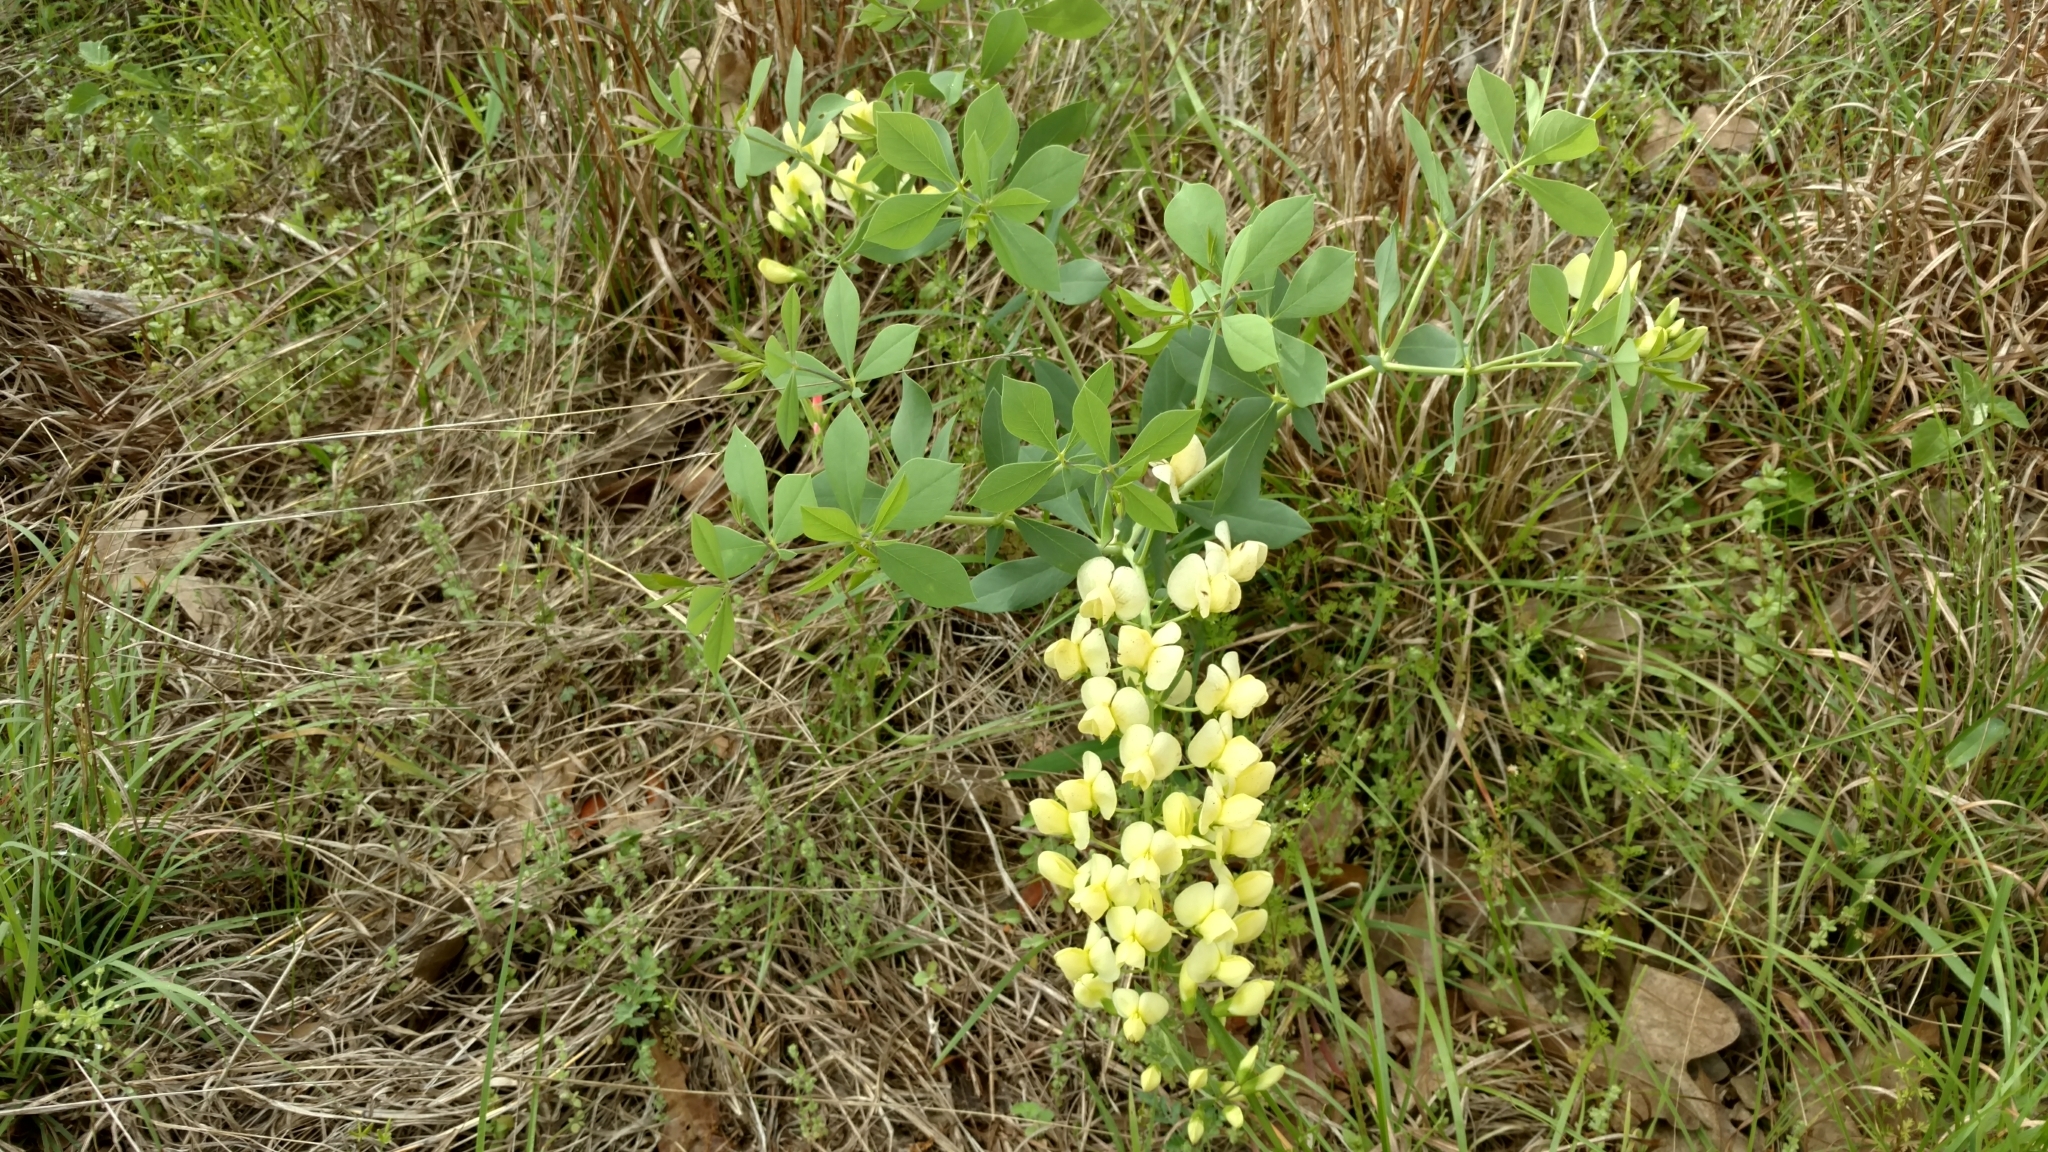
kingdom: Plantae
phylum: Tracheophyta
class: Magnoliopsida
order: Fabales
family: Fabaceae
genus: Baptisia
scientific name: Baptisia bracteata
